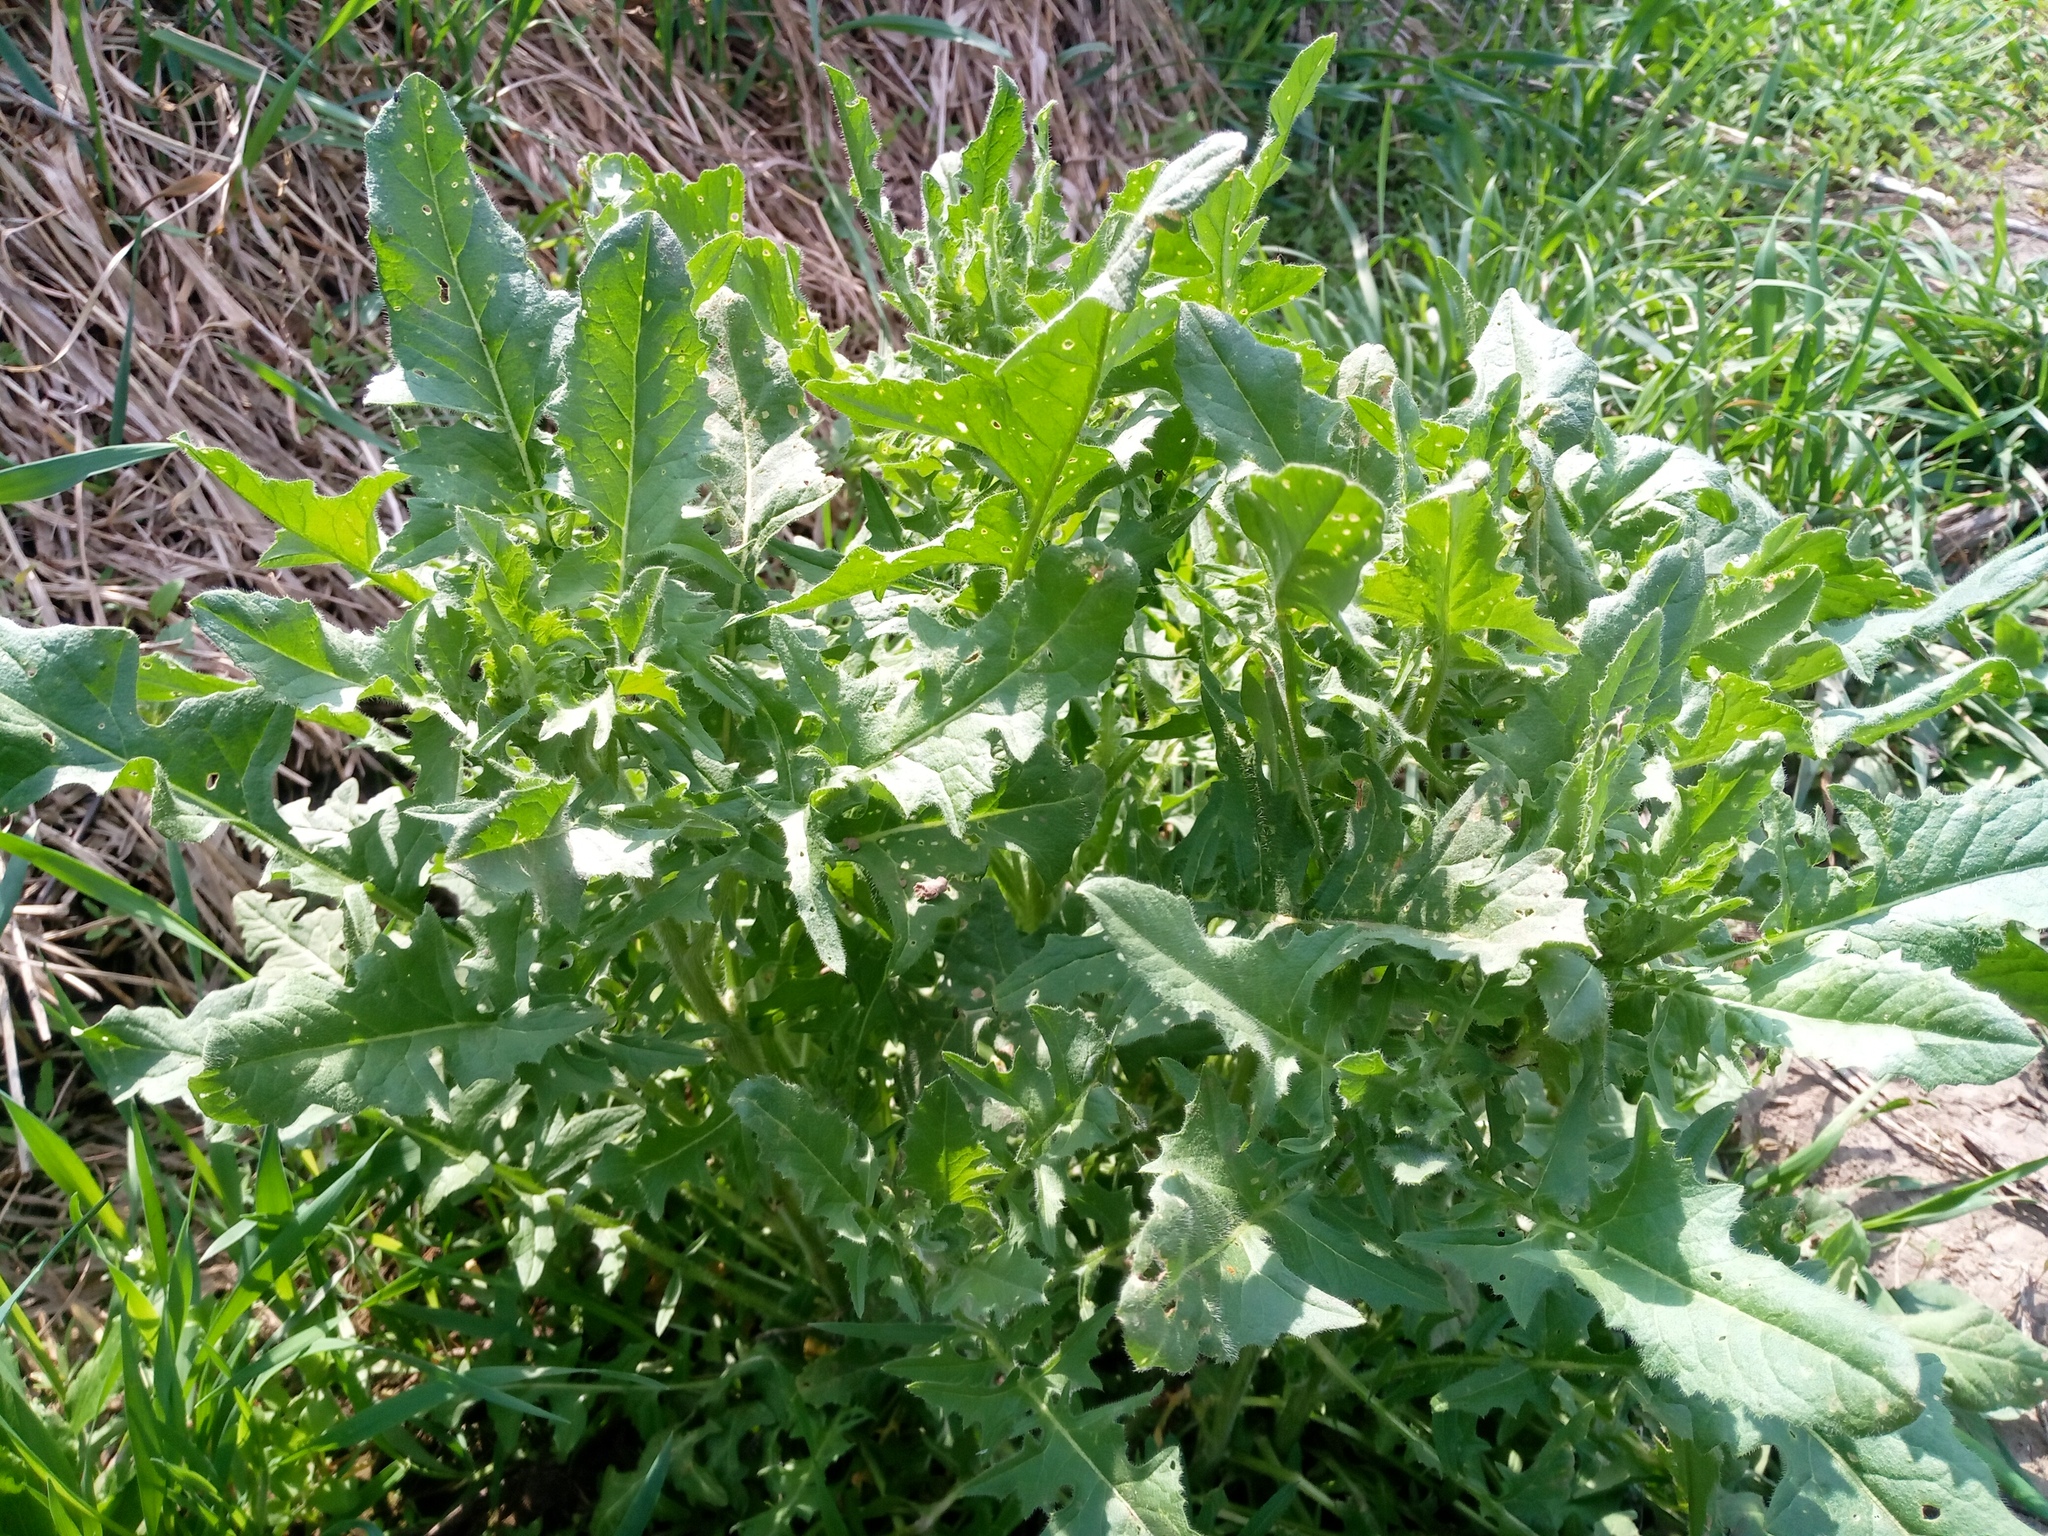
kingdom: Plantae
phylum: Tracheophyta
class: Magnoliopsida
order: Brassicales
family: Brassicaceae
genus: Sisymbrium
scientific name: Sisymbrium loeselii
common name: False london-rocket
